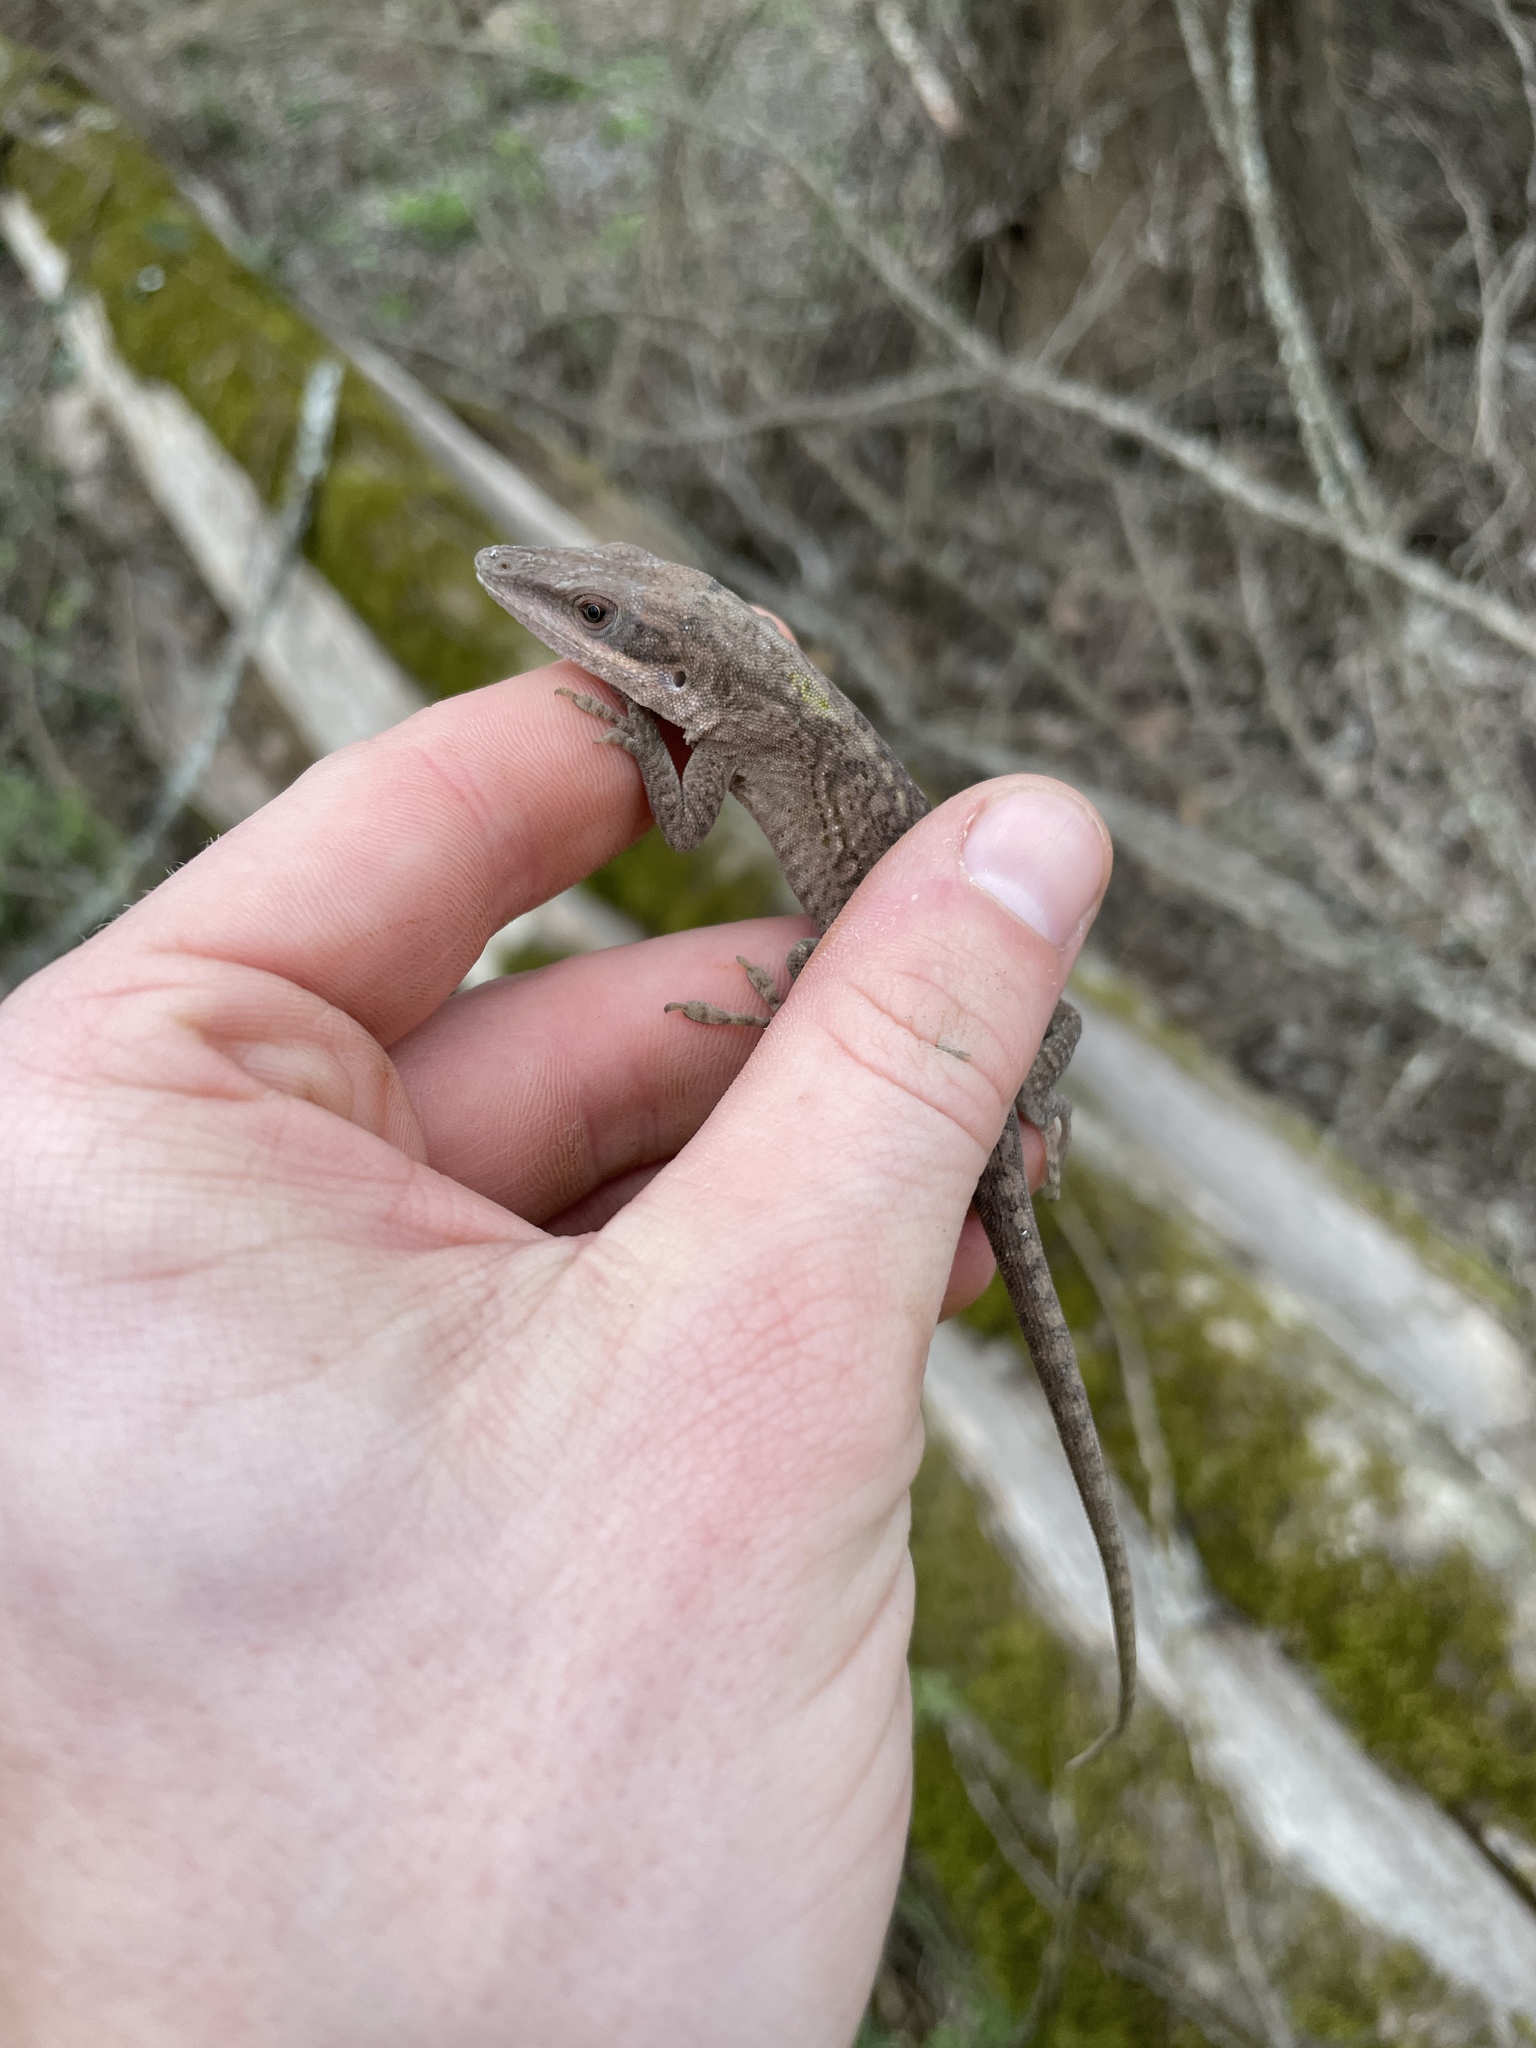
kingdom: Animalia
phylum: Chordata
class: Squamata
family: Dactyloidae
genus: Anolis
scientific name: Anolis carolinensis
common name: Green anole
